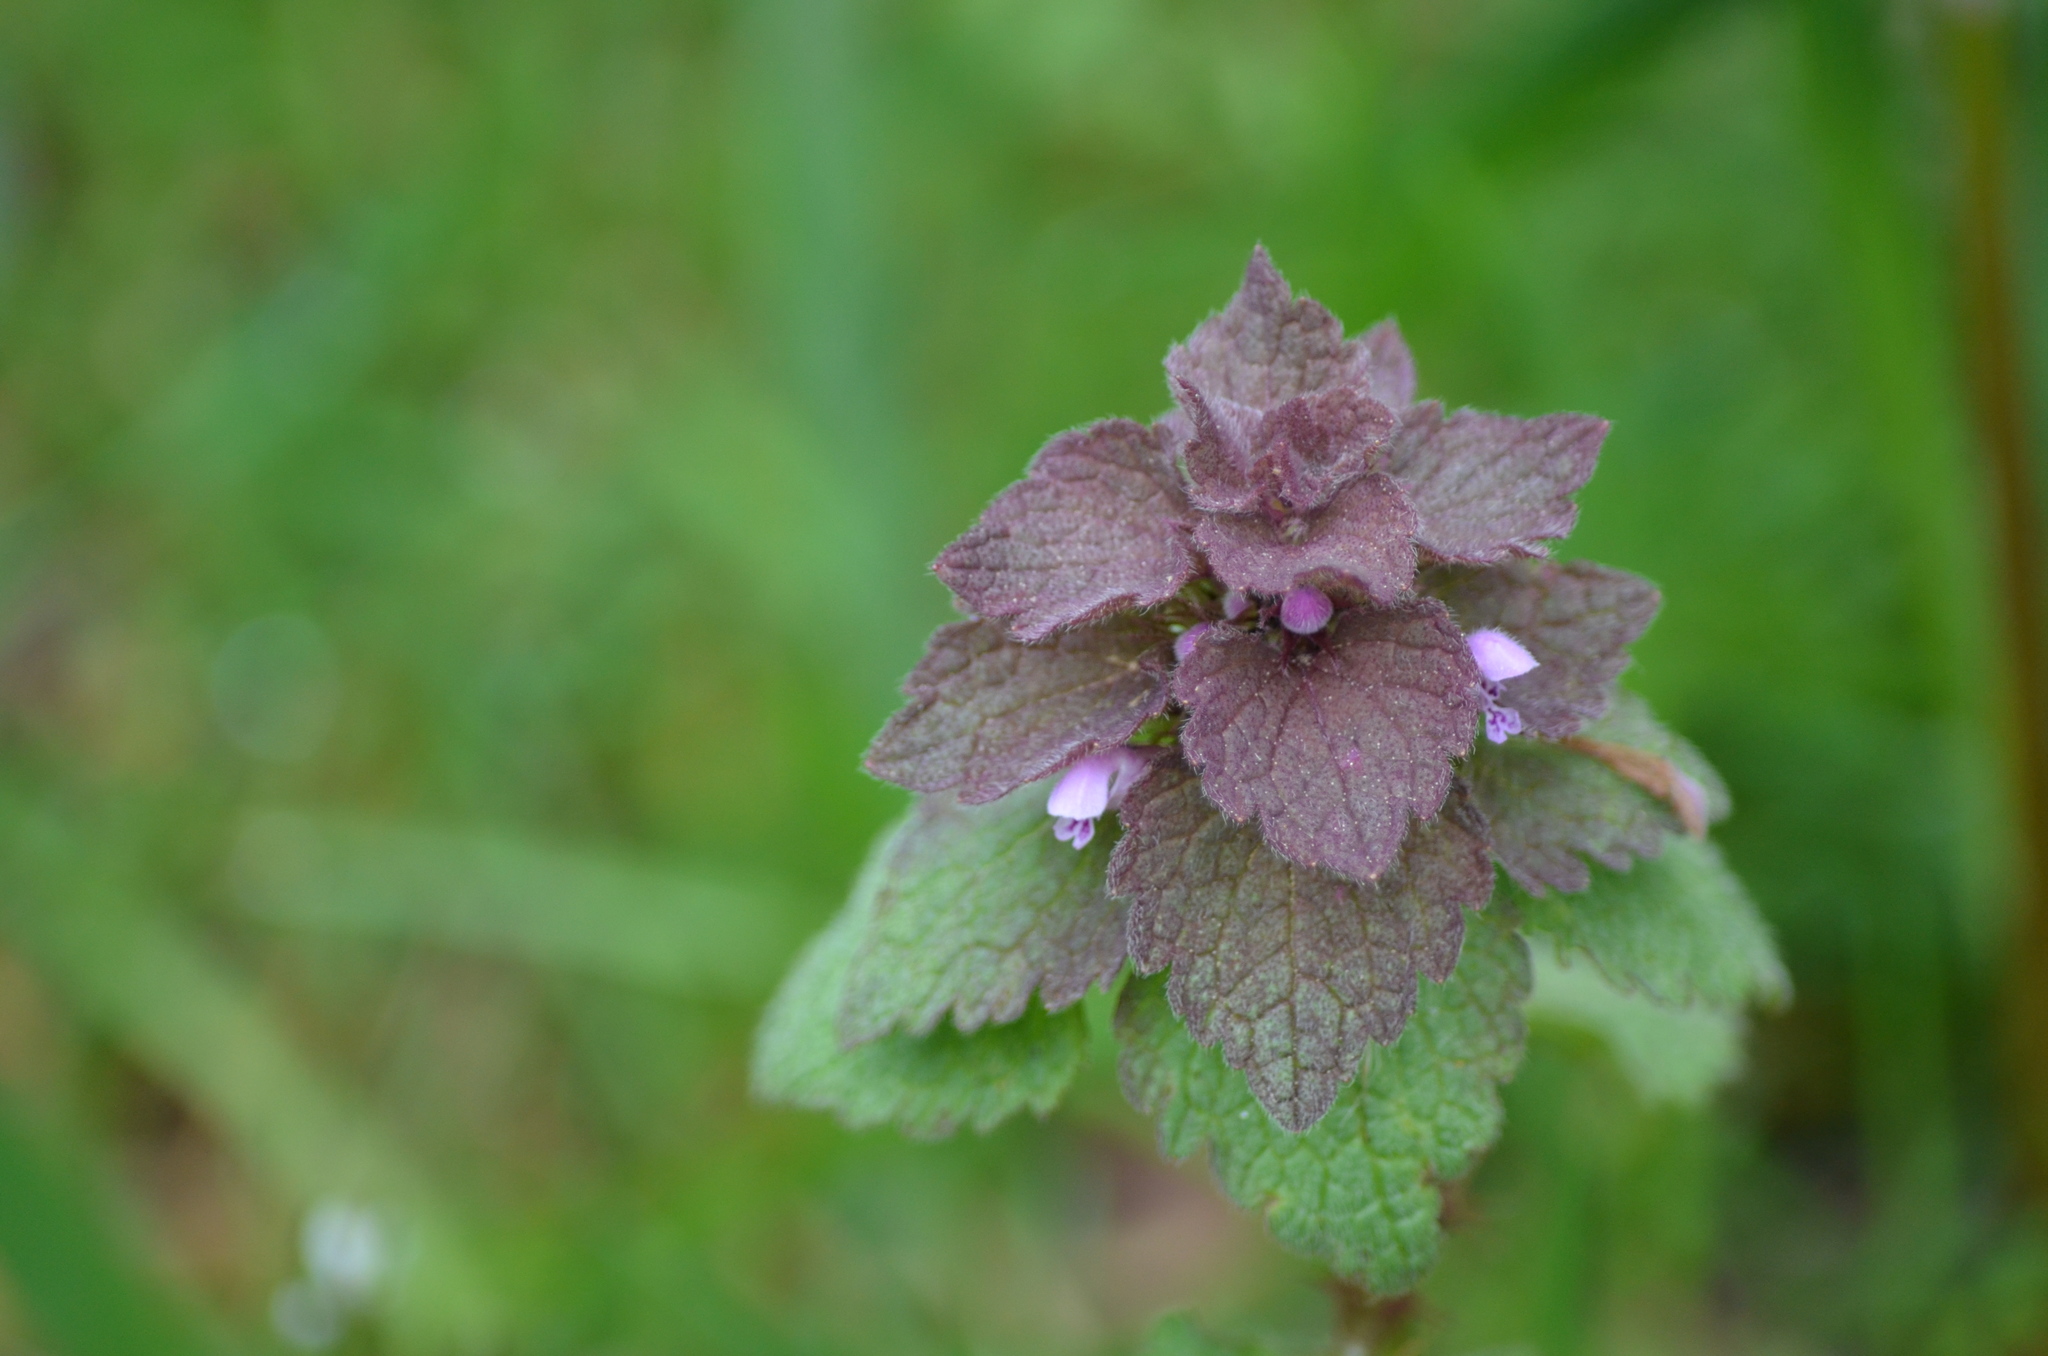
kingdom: Plantae
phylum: Tracheophyta
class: Magnoliopsida
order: Lamiales
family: Lamiaceae
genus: Lamium
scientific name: Lamium purpureum
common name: Red dead-nettle
